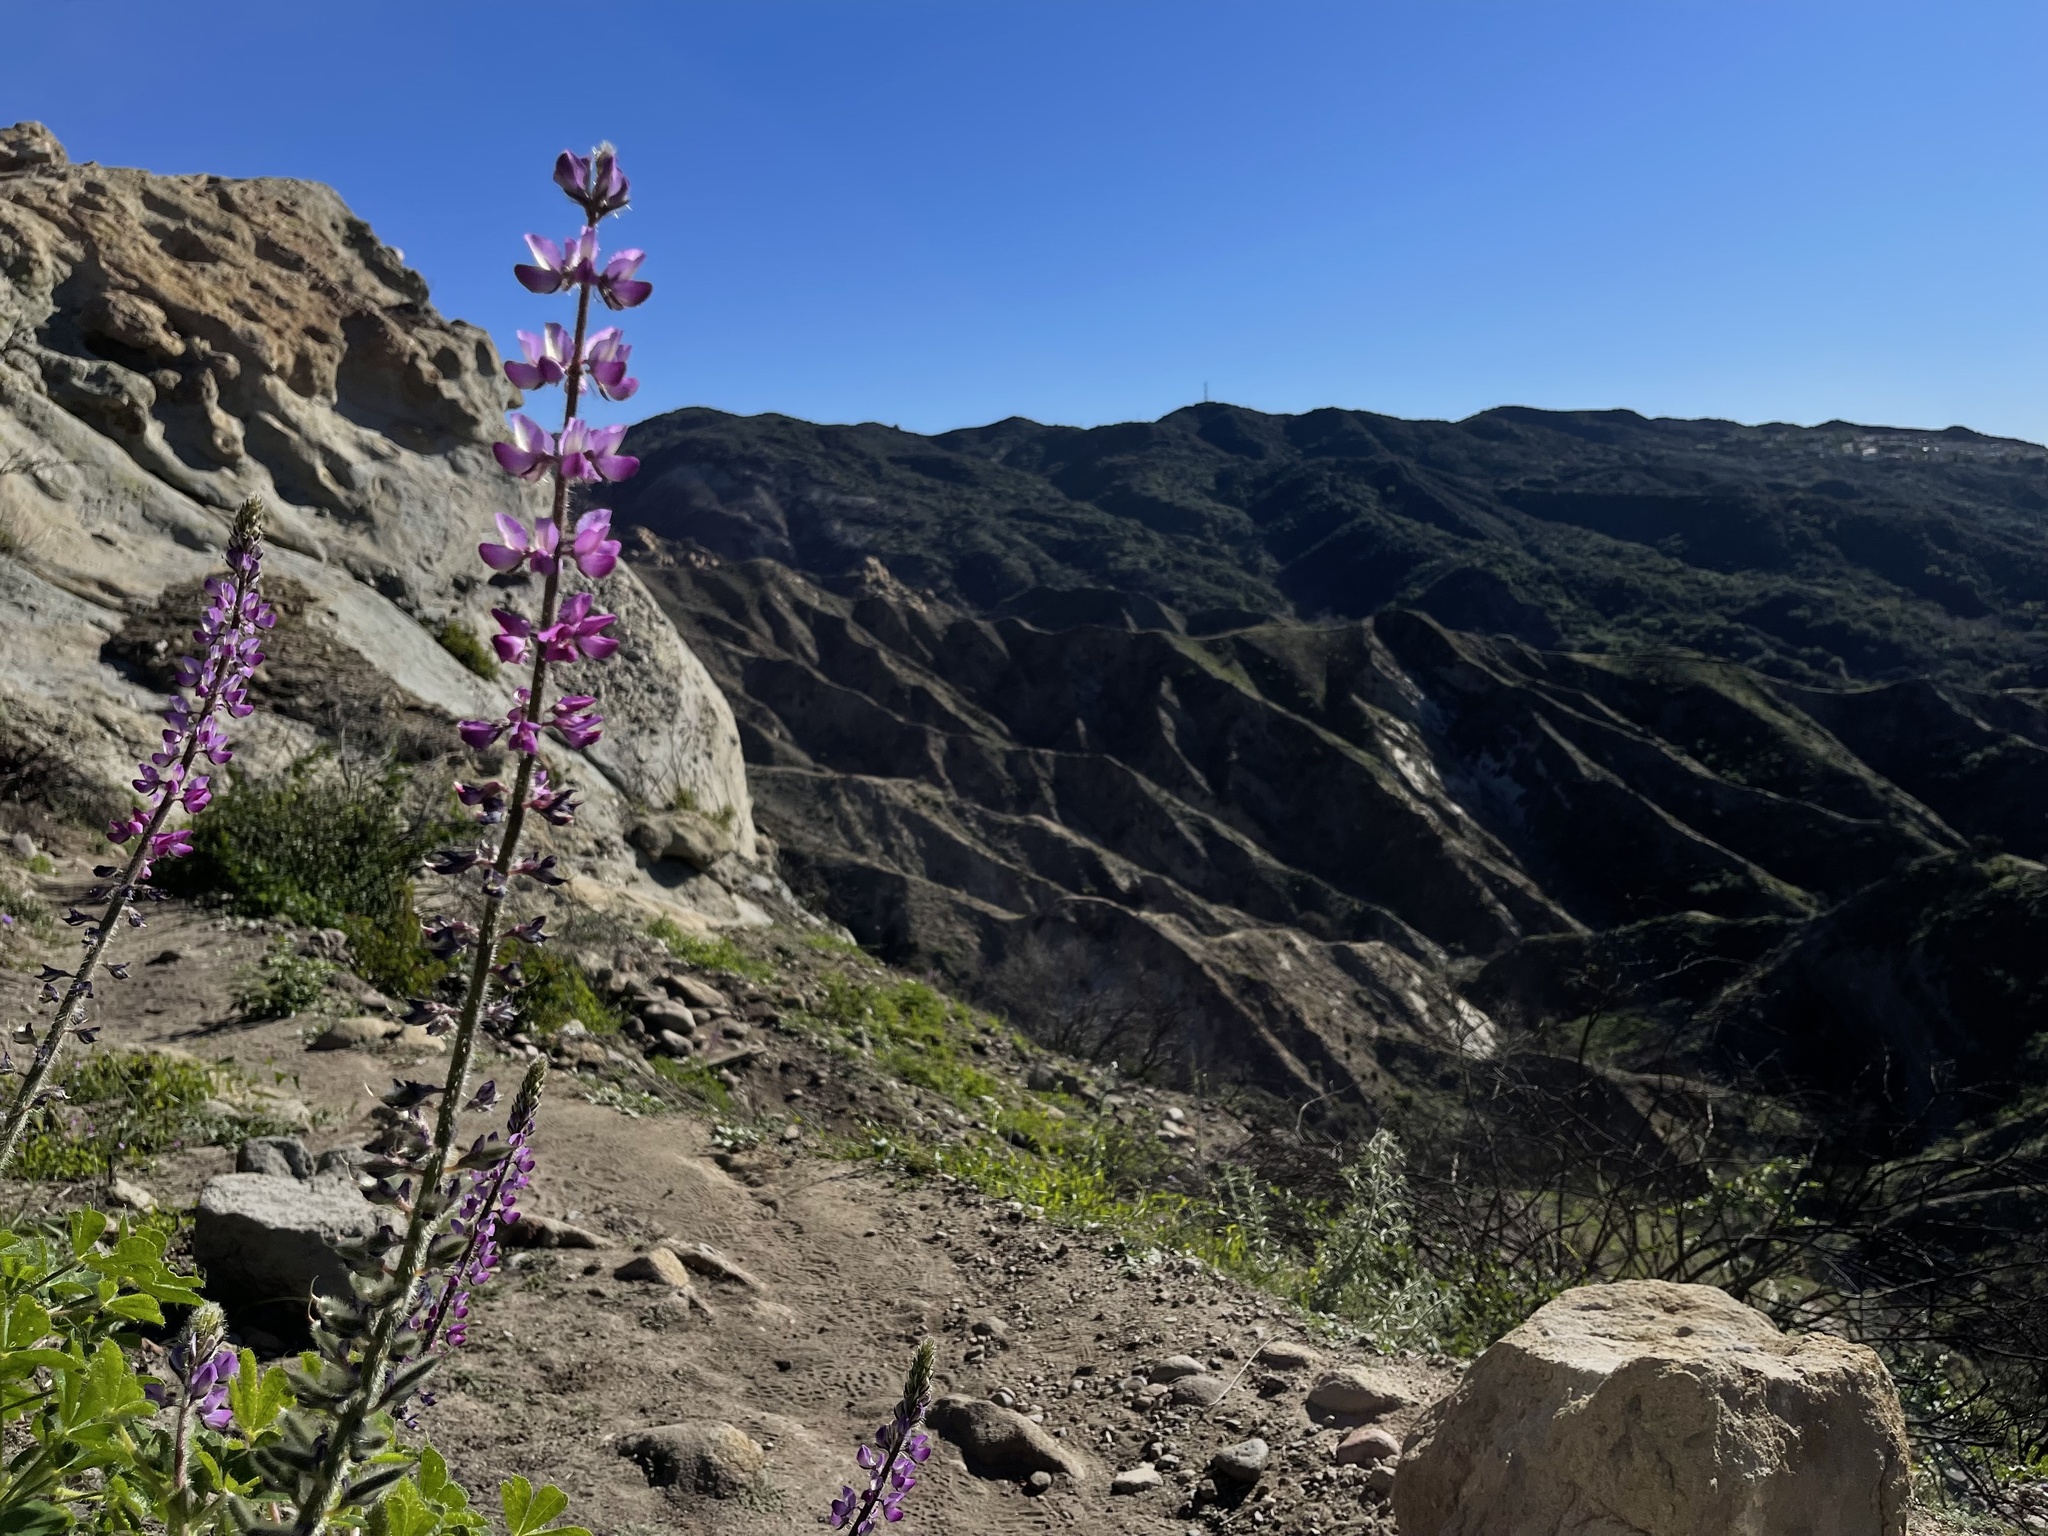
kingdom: Plantae
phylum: Tracheophyta
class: Magnoliopsida
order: Fabales
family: Fabaceae
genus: Lupinus
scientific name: Lupinus hirsutissimus
